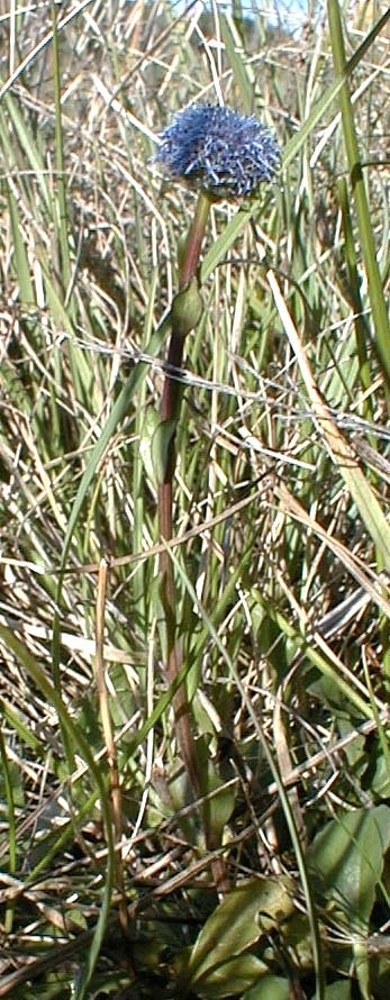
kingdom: Plantae
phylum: Tracheophyta
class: Magnoliopsida
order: Lamiales
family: Plantaginaceae
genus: Globularia
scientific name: Globularia bisnagarica
